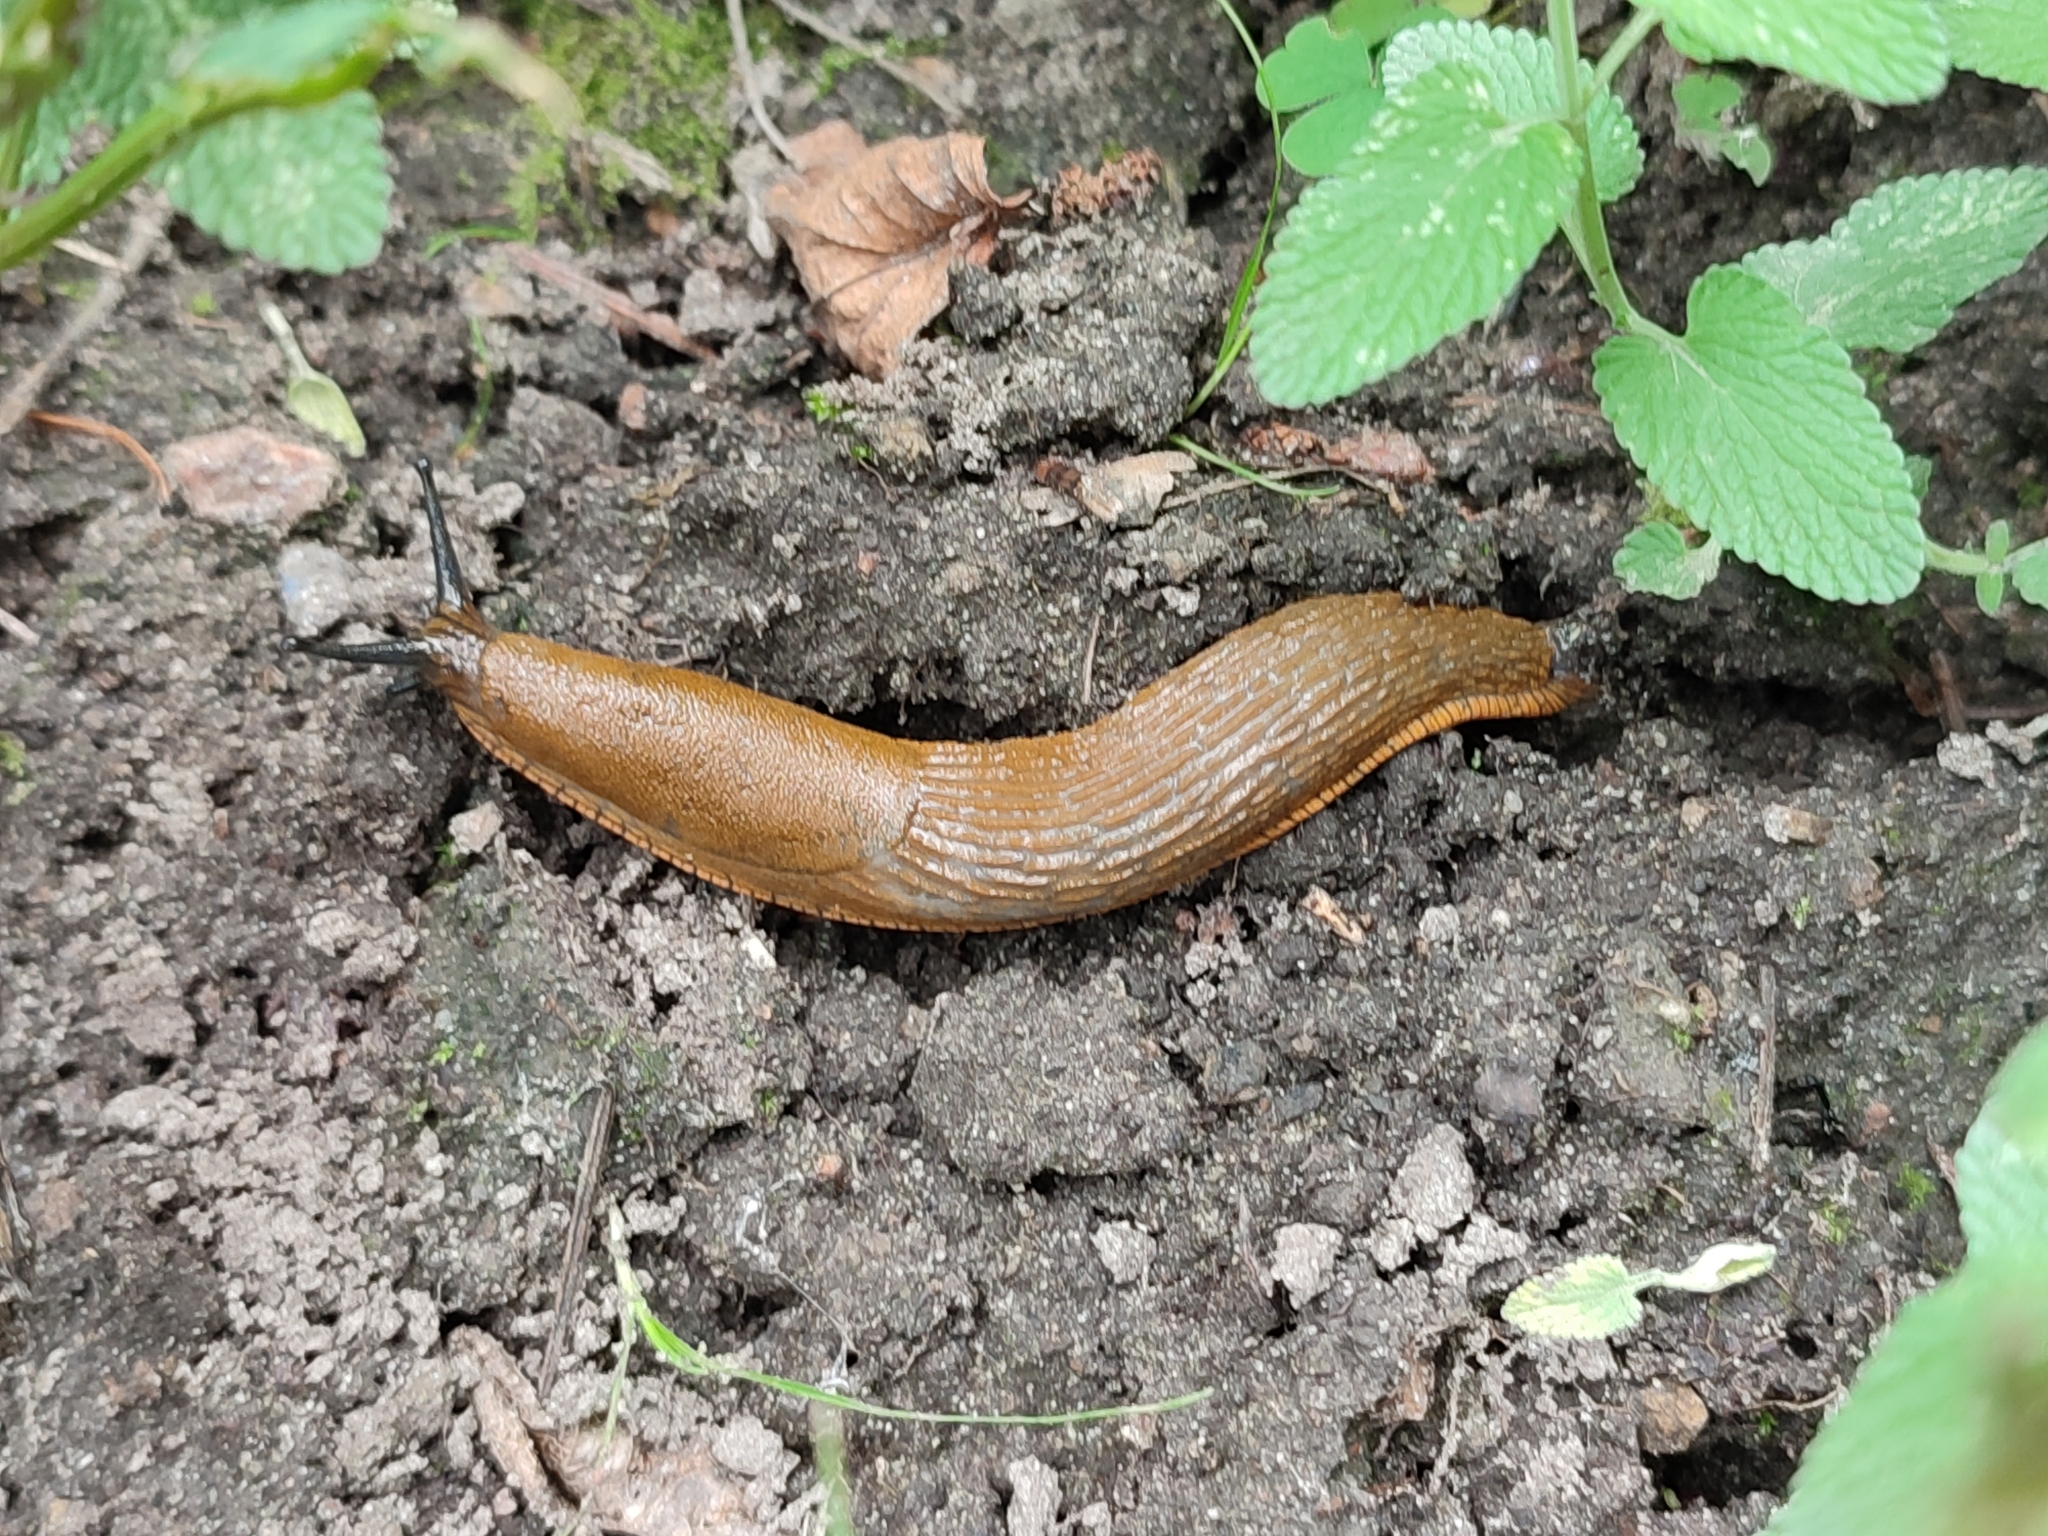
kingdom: Animalia
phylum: Mollusca
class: Gastropoda
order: Stylommatophora
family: Arionidae
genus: Arion
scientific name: Arion vulgaris
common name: Lusitanian slug
